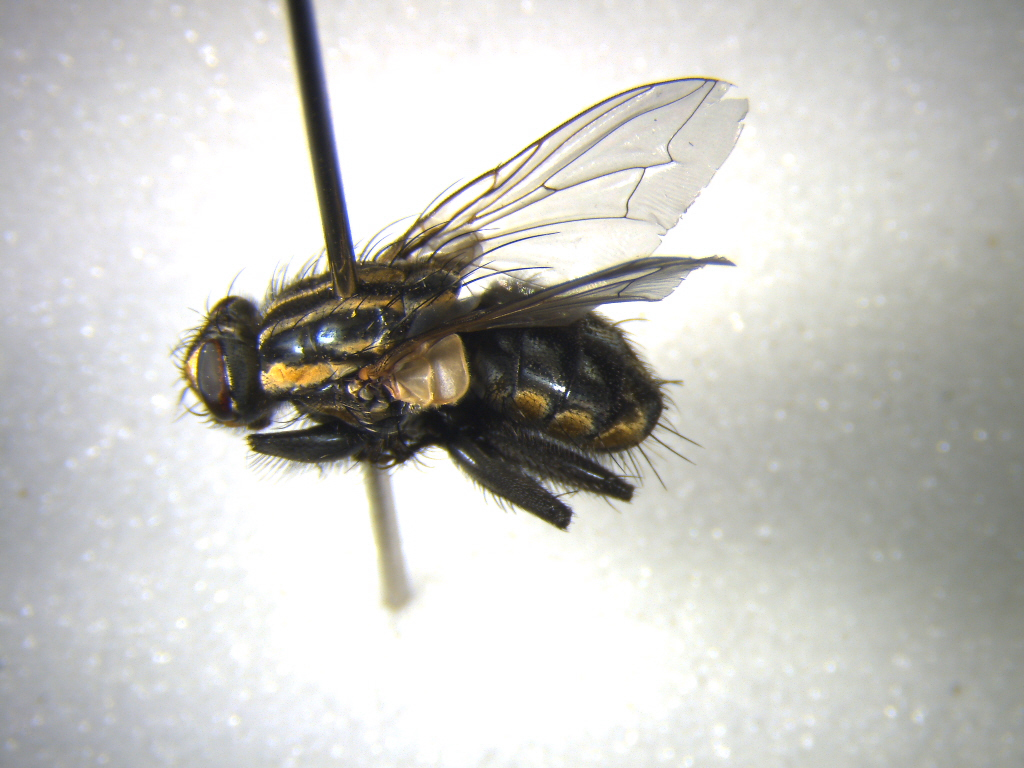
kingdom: Animalia
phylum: Arthropoda
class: Insecta
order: Diptera
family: Sarcophagidae
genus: Oxysarcodexia
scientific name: Oxysarcodexia varia
